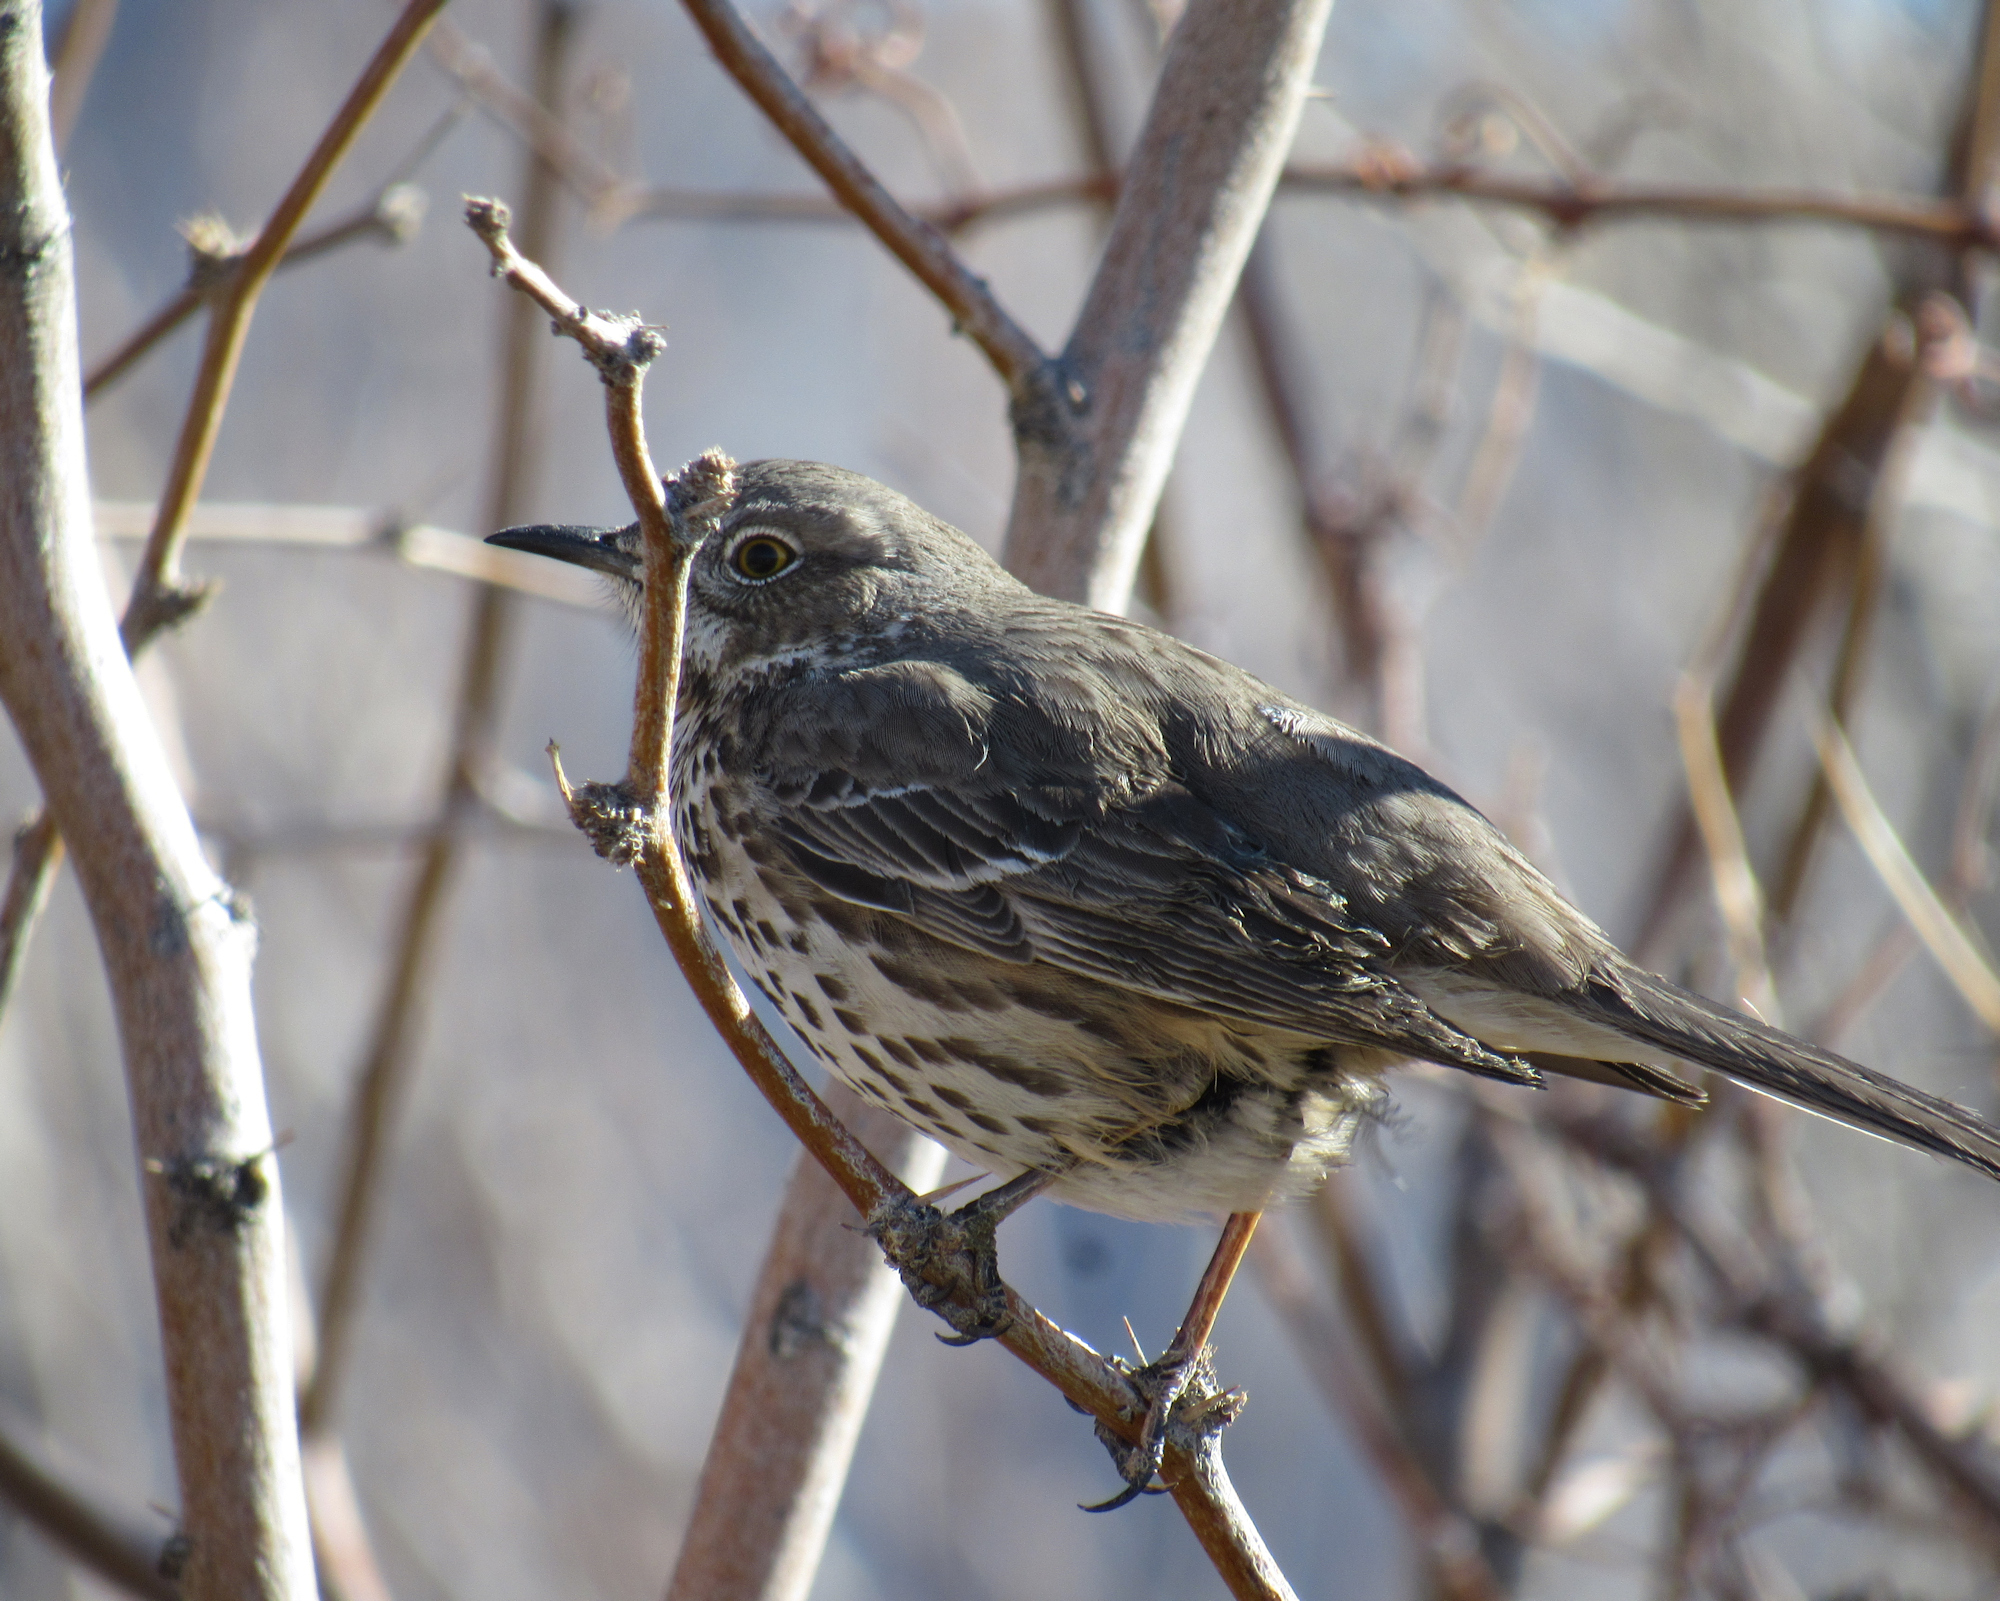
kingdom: Animalia
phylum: Chordata
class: Aves
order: Passeriformes
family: Mimidae
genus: Oreoscoptes
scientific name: Oreoscoptes montanus
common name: Sage thrasher
